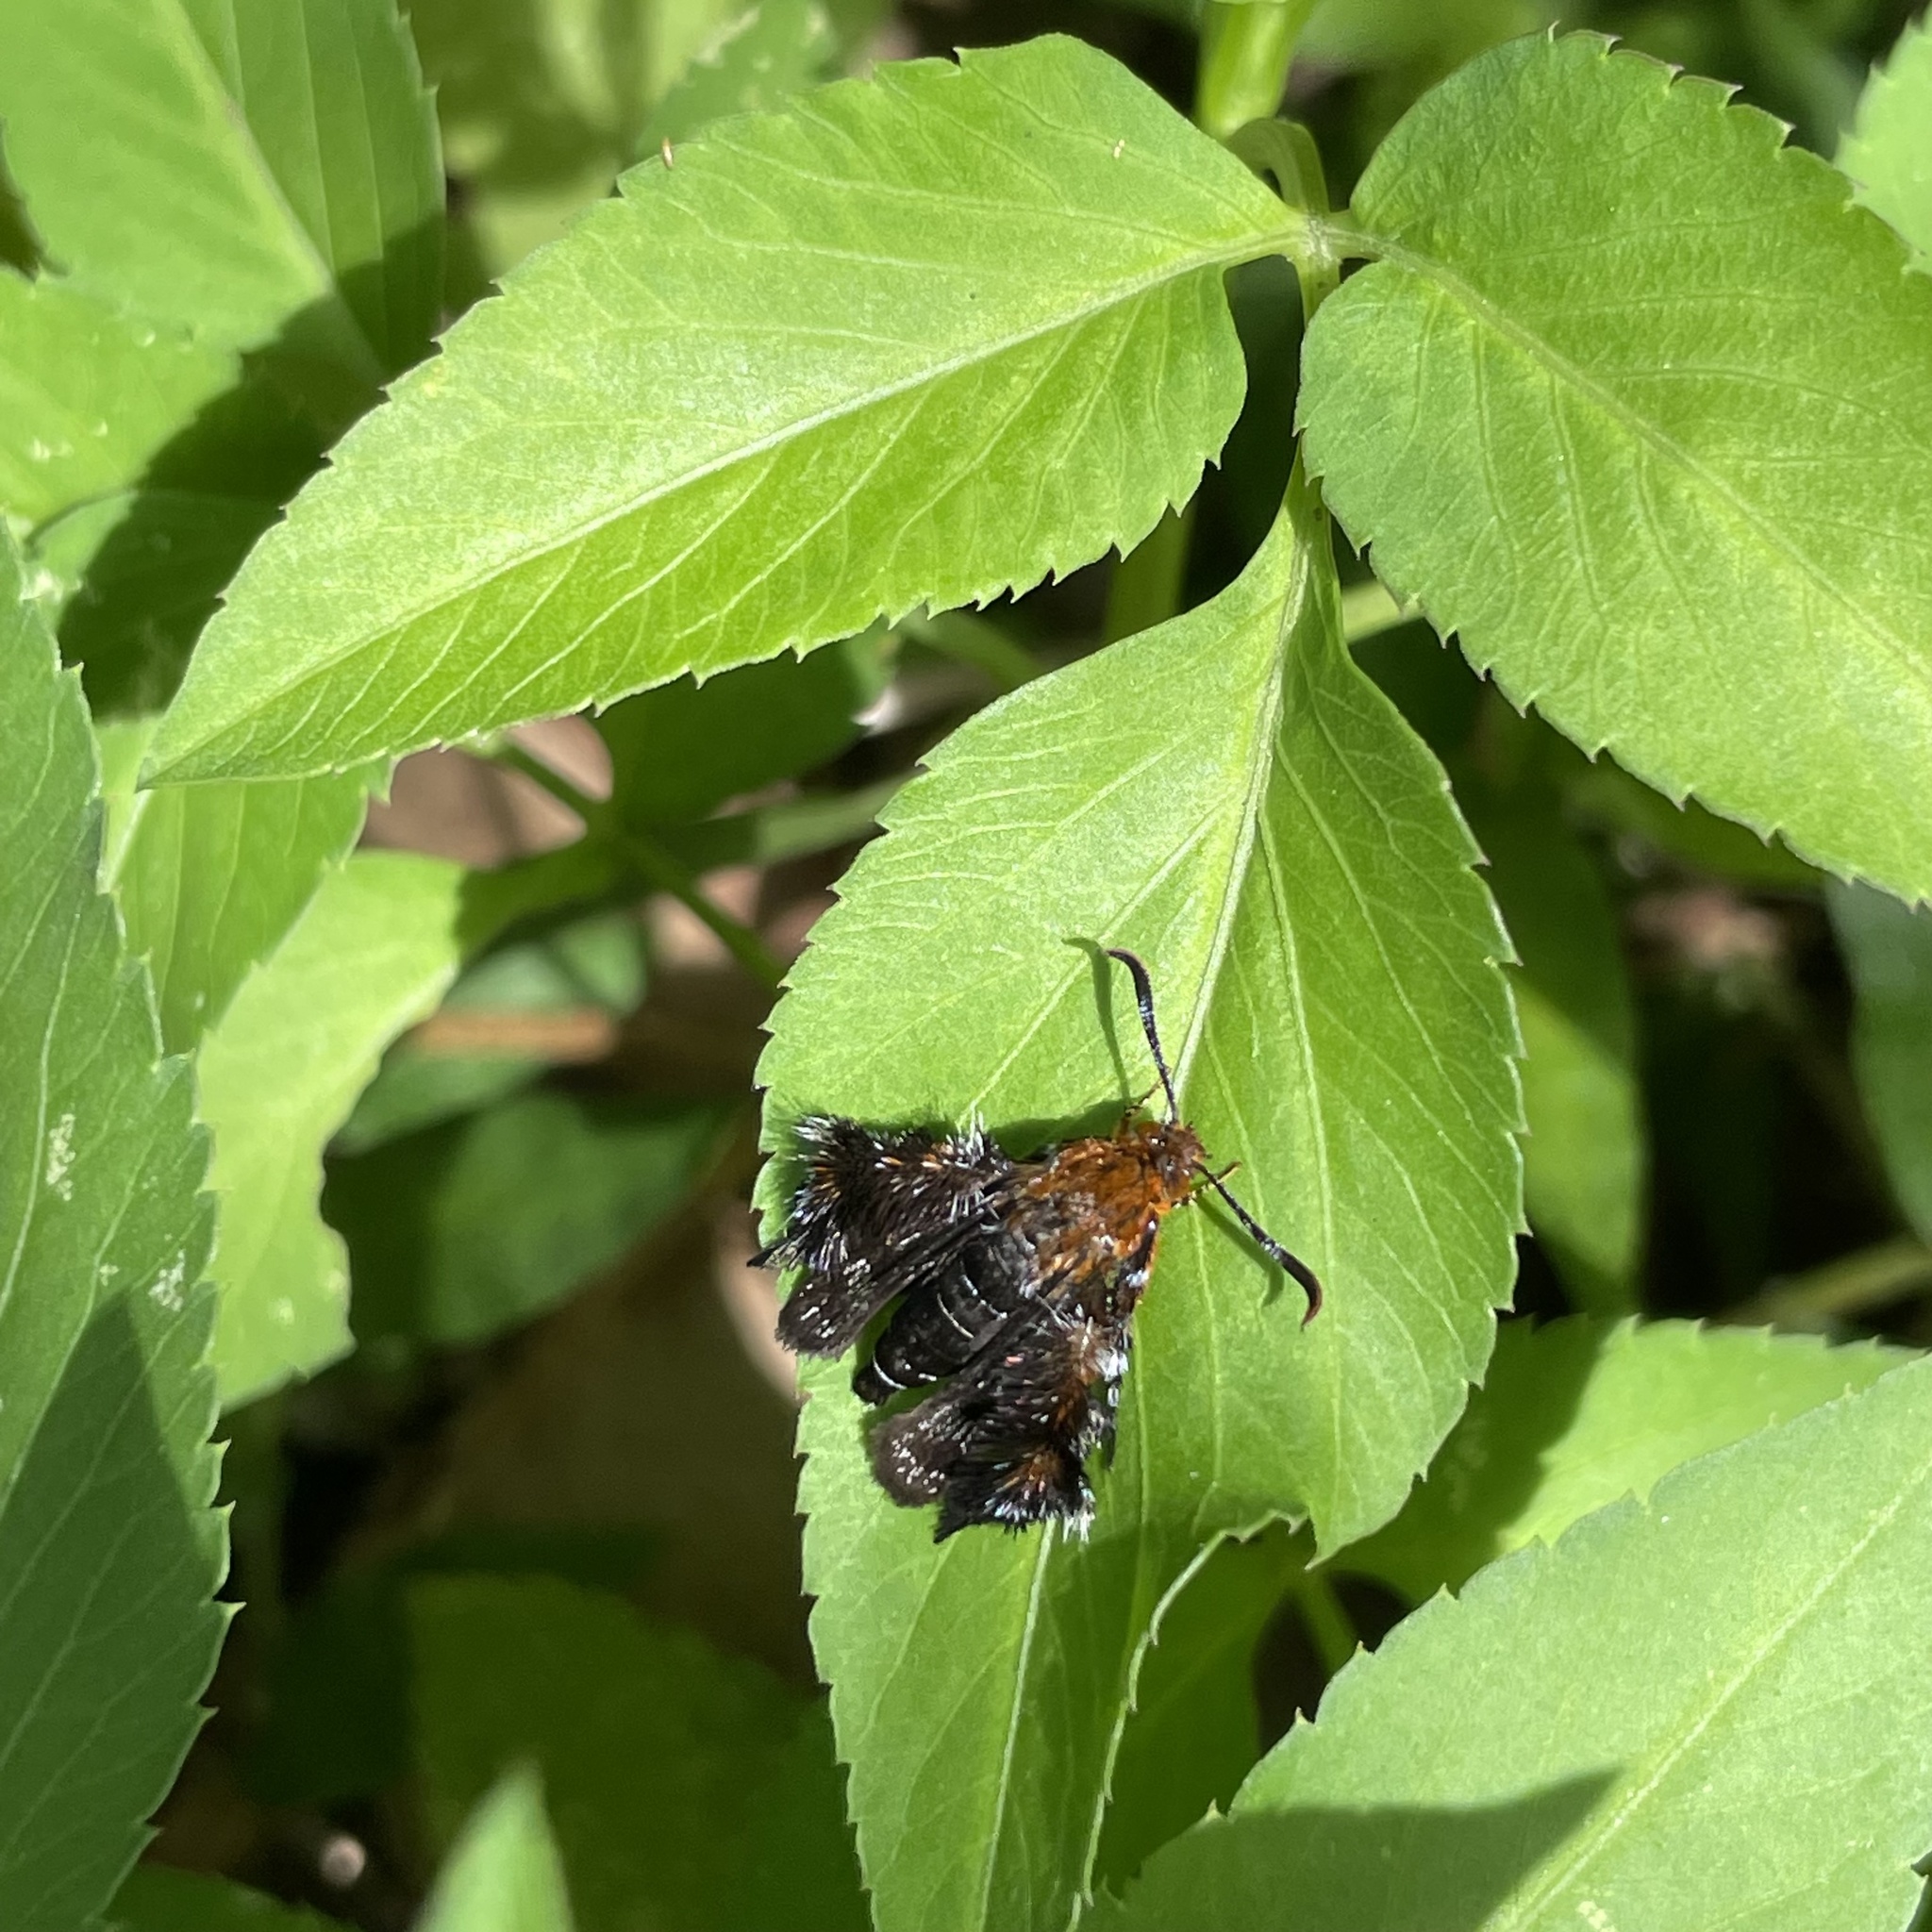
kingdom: Animalia
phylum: Arthropoda
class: Insecta
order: Lepidoptera
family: Sesiidae
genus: Macroscelesia
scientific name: Macroscelesia okinawana
